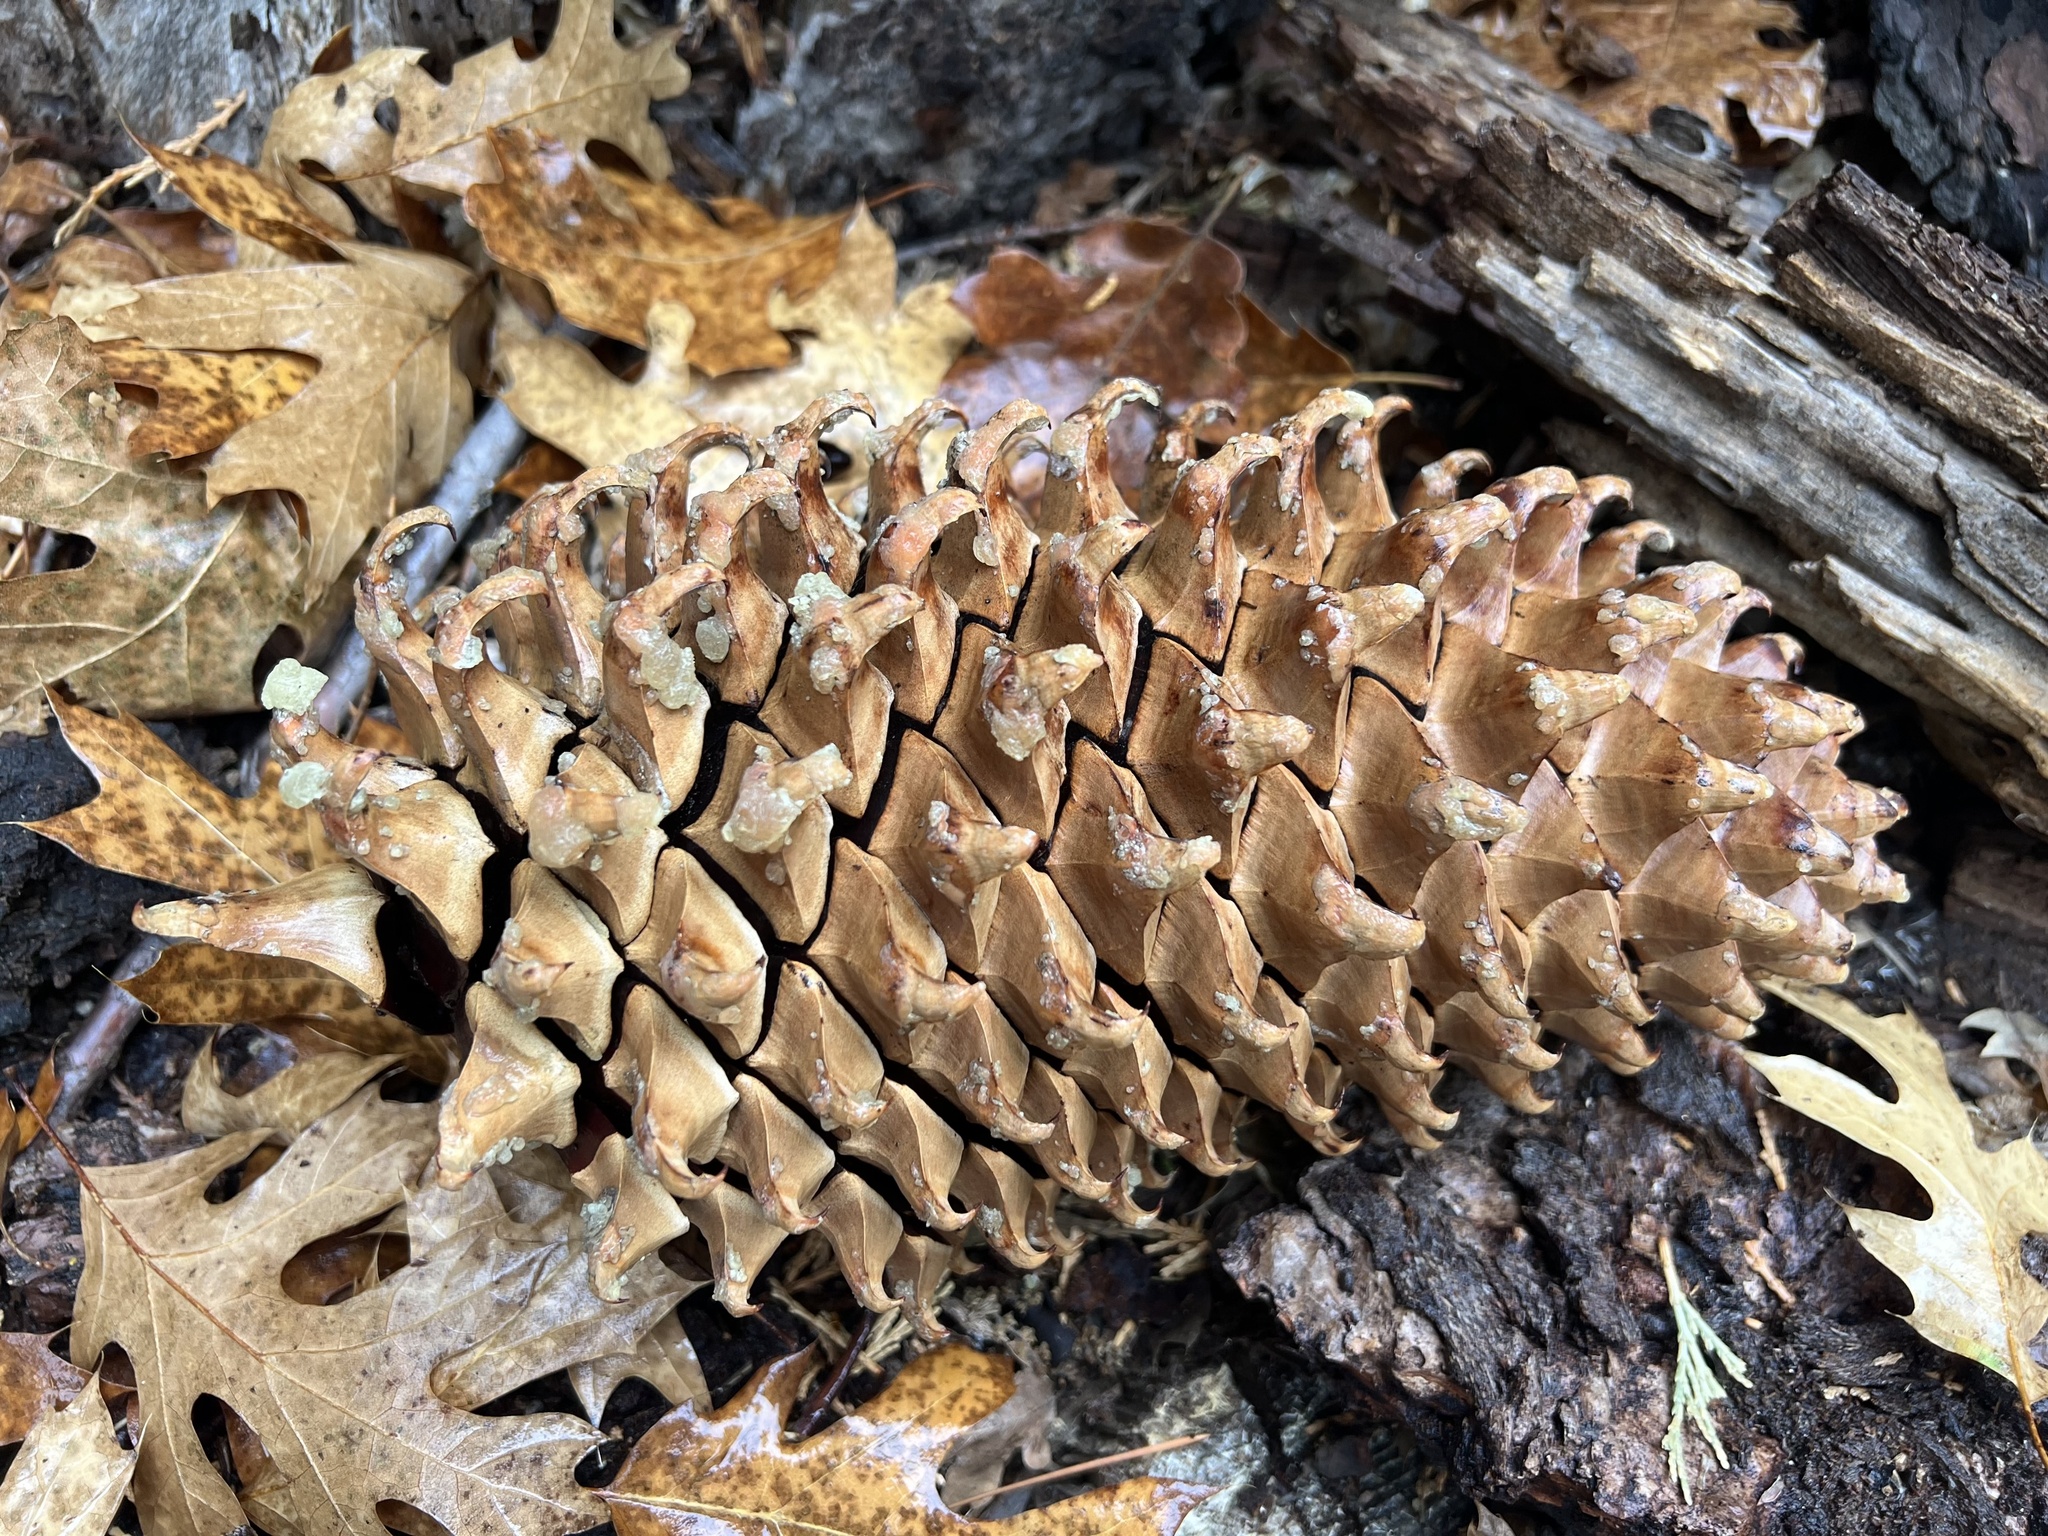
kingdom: Plantae
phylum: Tracheophyta
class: Pinopsida
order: Pinales
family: Pinaceae
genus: Pinus
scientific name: Pinus coulteri
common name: Coulter pine
